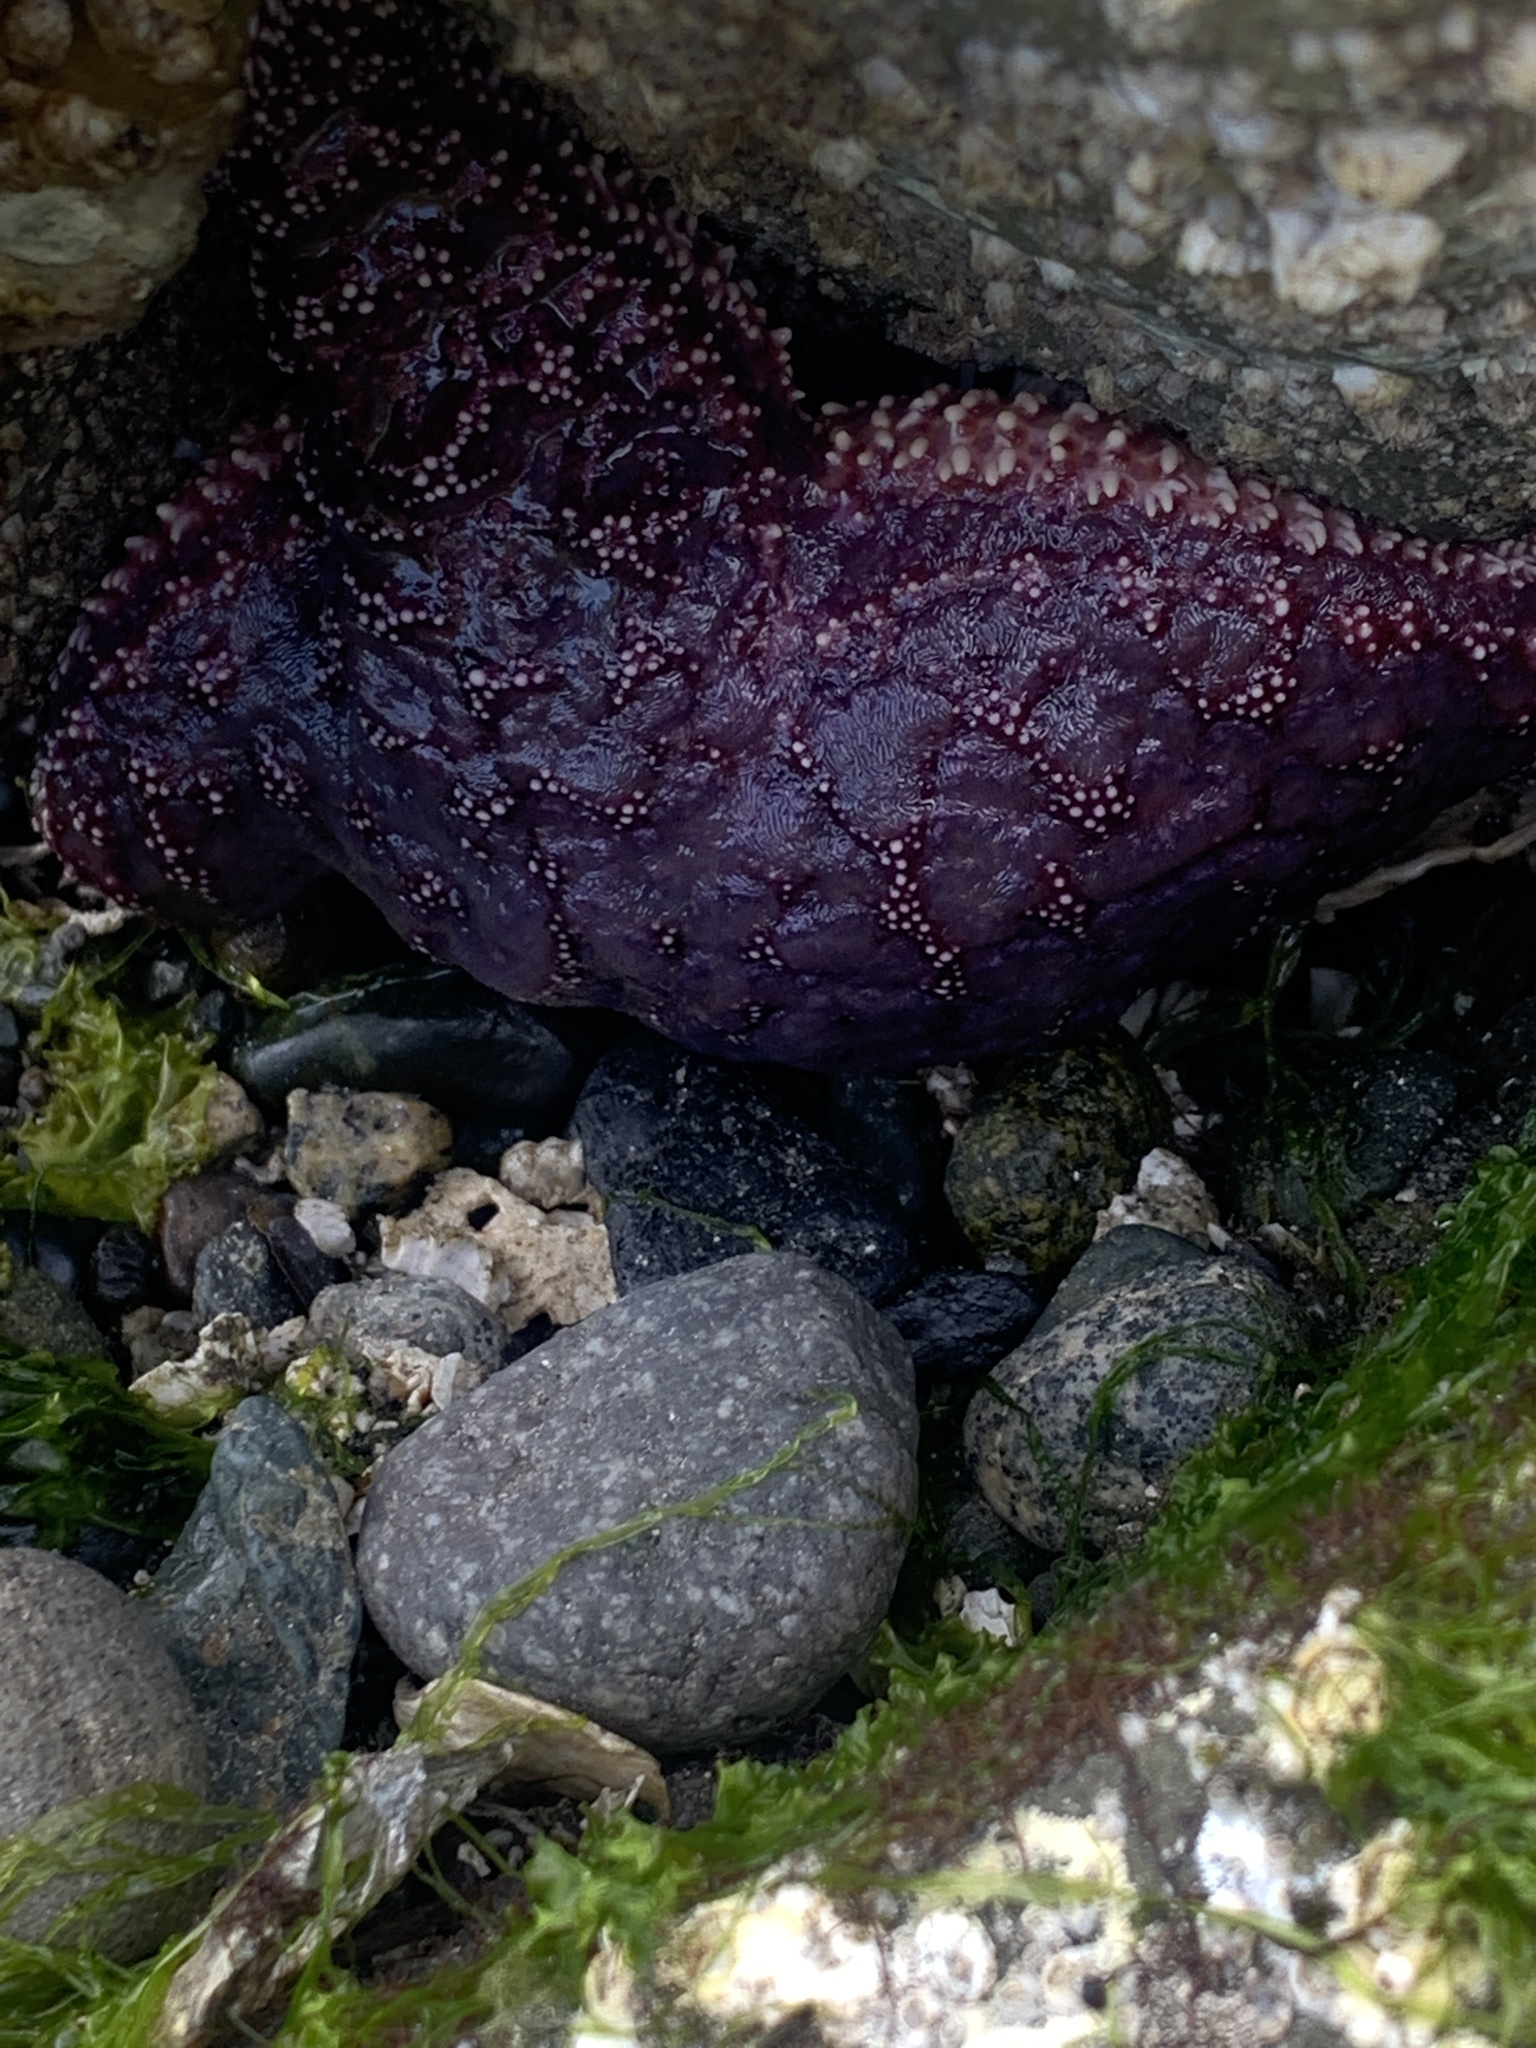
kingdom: Animalia
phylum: Echinodermata
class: Asteroidea
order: Forcipulatida
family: Asteriidae
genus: Pisaster
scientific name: Pisaster ochraceus
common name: Ochre stars
